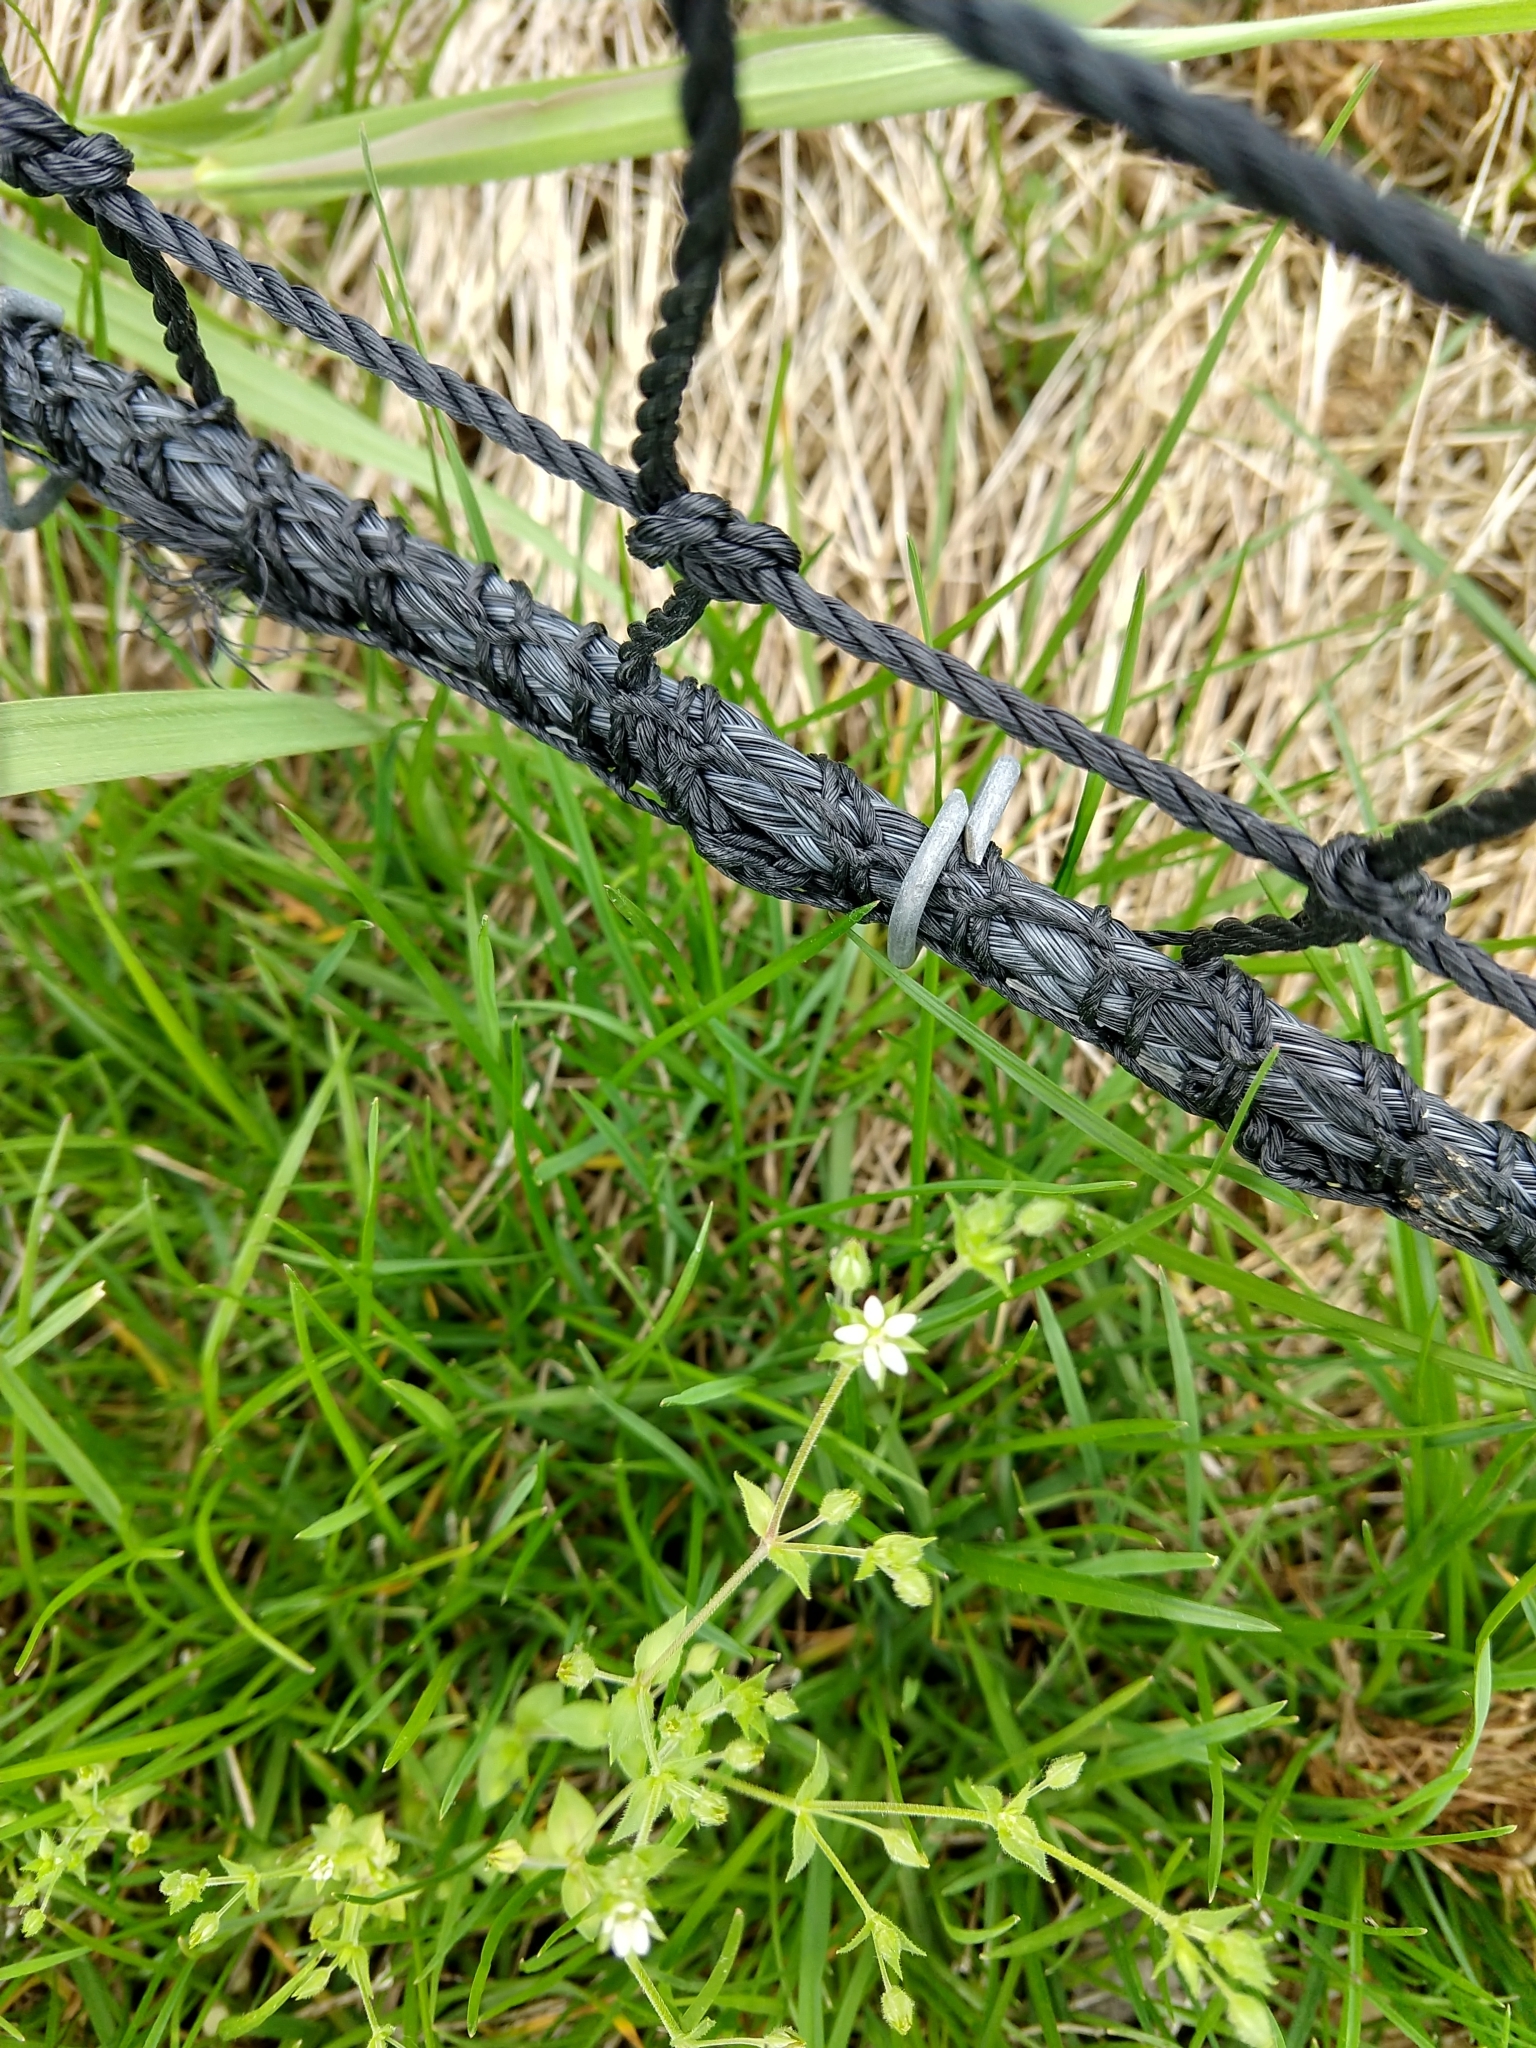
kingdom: Plantae
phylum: Tracheophyta
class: Magnoliopsida
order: Caryophyllales
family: Caryophyllaceae
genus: Arenaria
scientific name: Arenaria serpyllifolia
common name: Thyme-leaved sandwort
